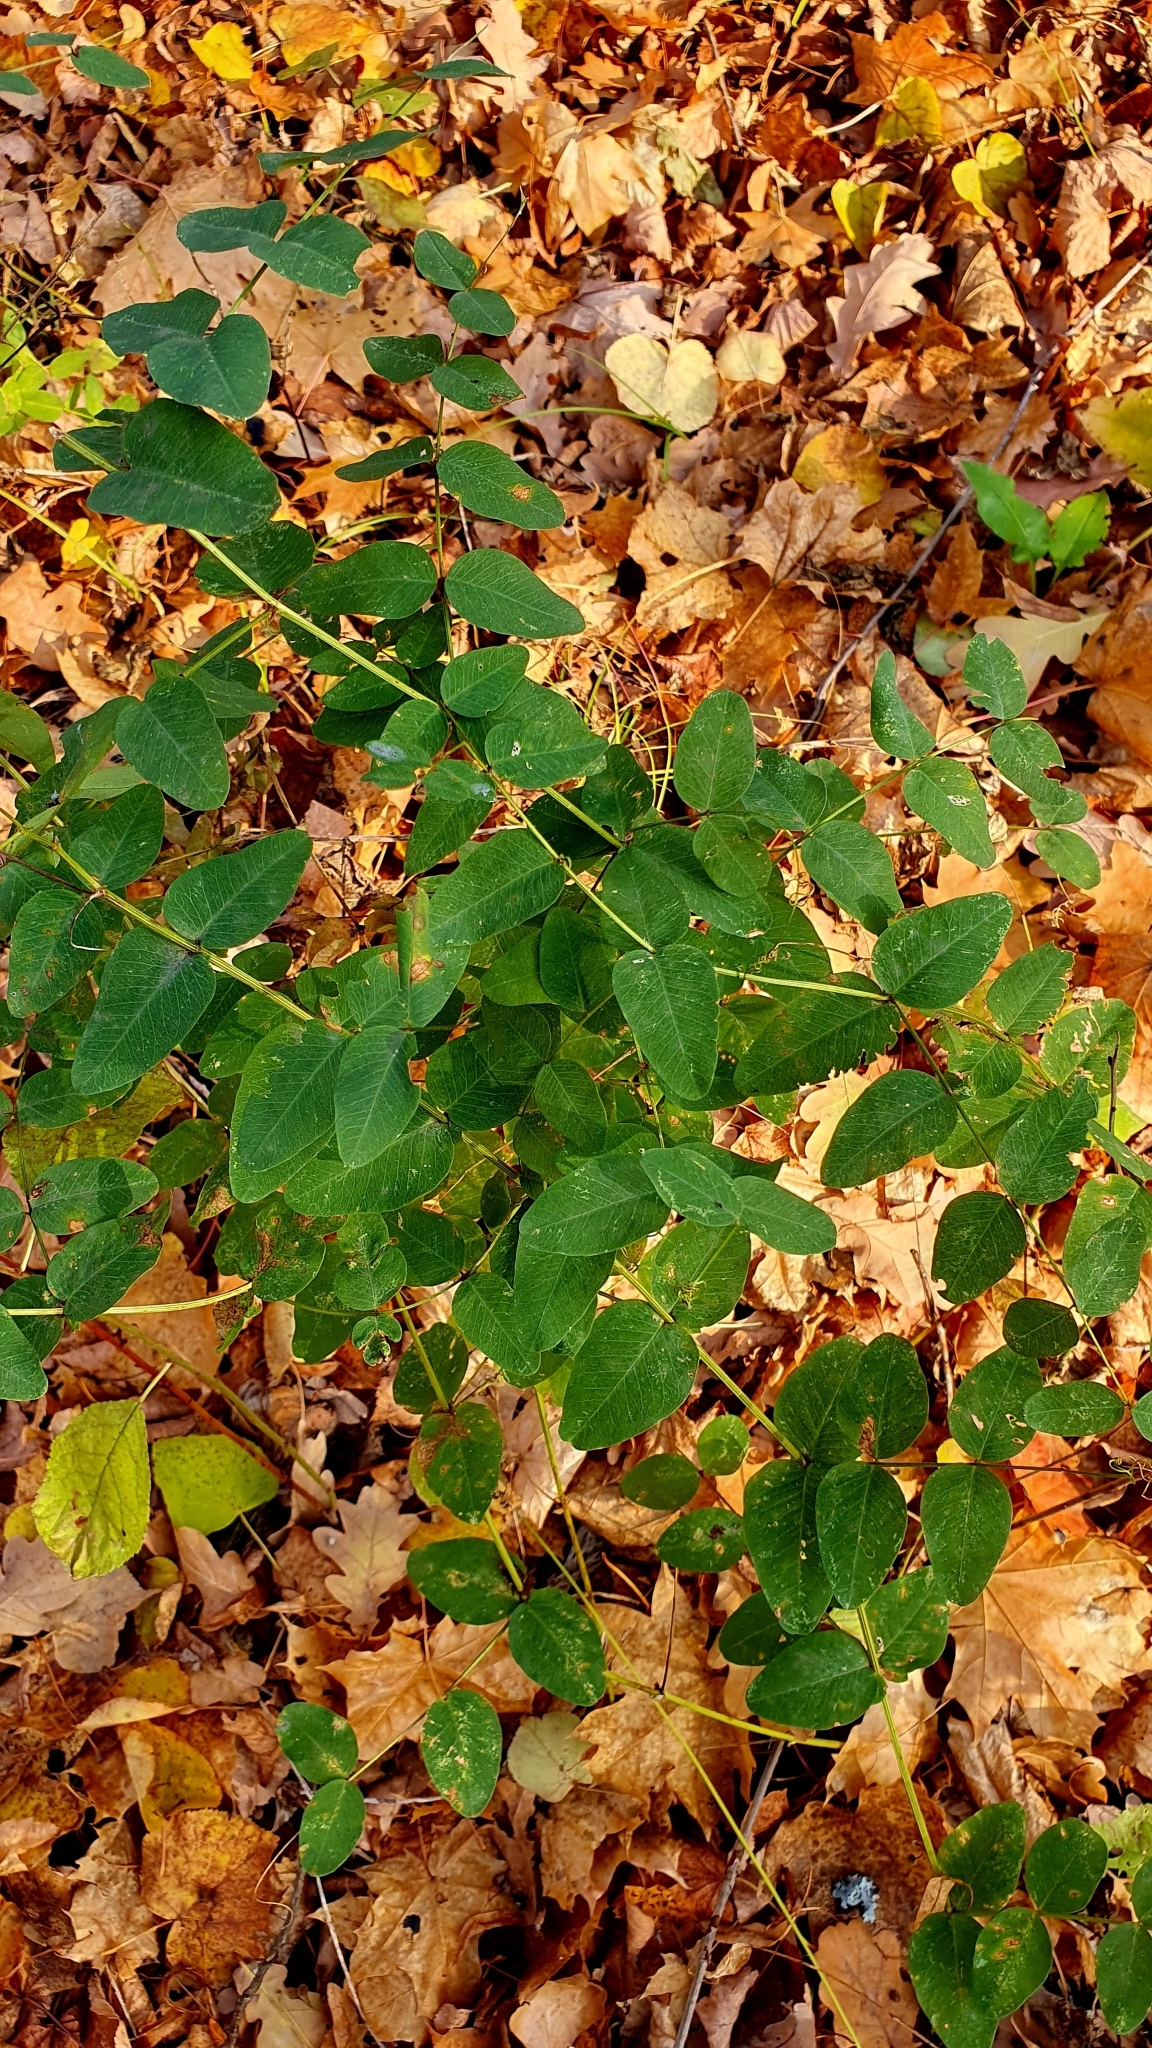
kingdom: Plantae
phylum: Tracheophyta
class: Magnoliopsida
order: Fabales
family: Fabaceae
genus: Vicia
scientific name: Vicia pisiformis
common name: Pale-flower vetch
